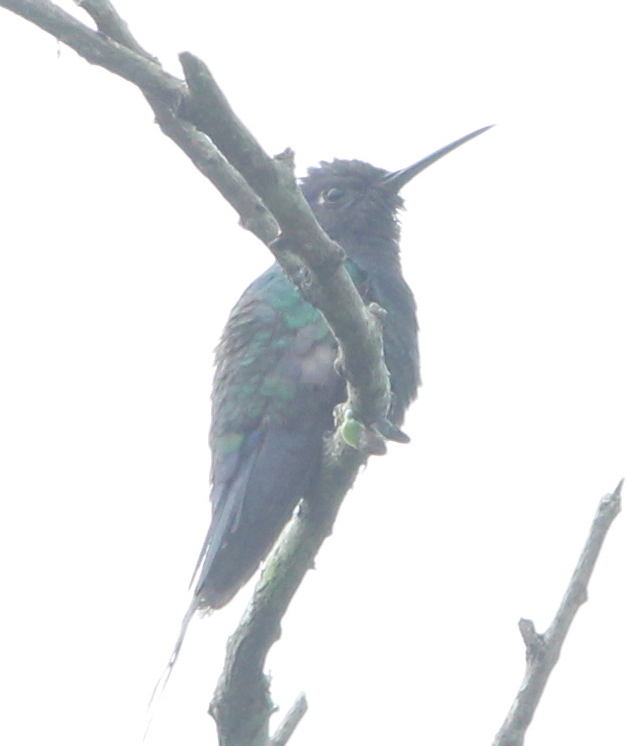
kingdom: Animalia
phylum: Chordata
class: Aves
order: Apodiformes
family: Trochilidae
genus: Eupetomena
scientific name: Eupetomena macroura
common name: Swallow-tailed hummingbird
